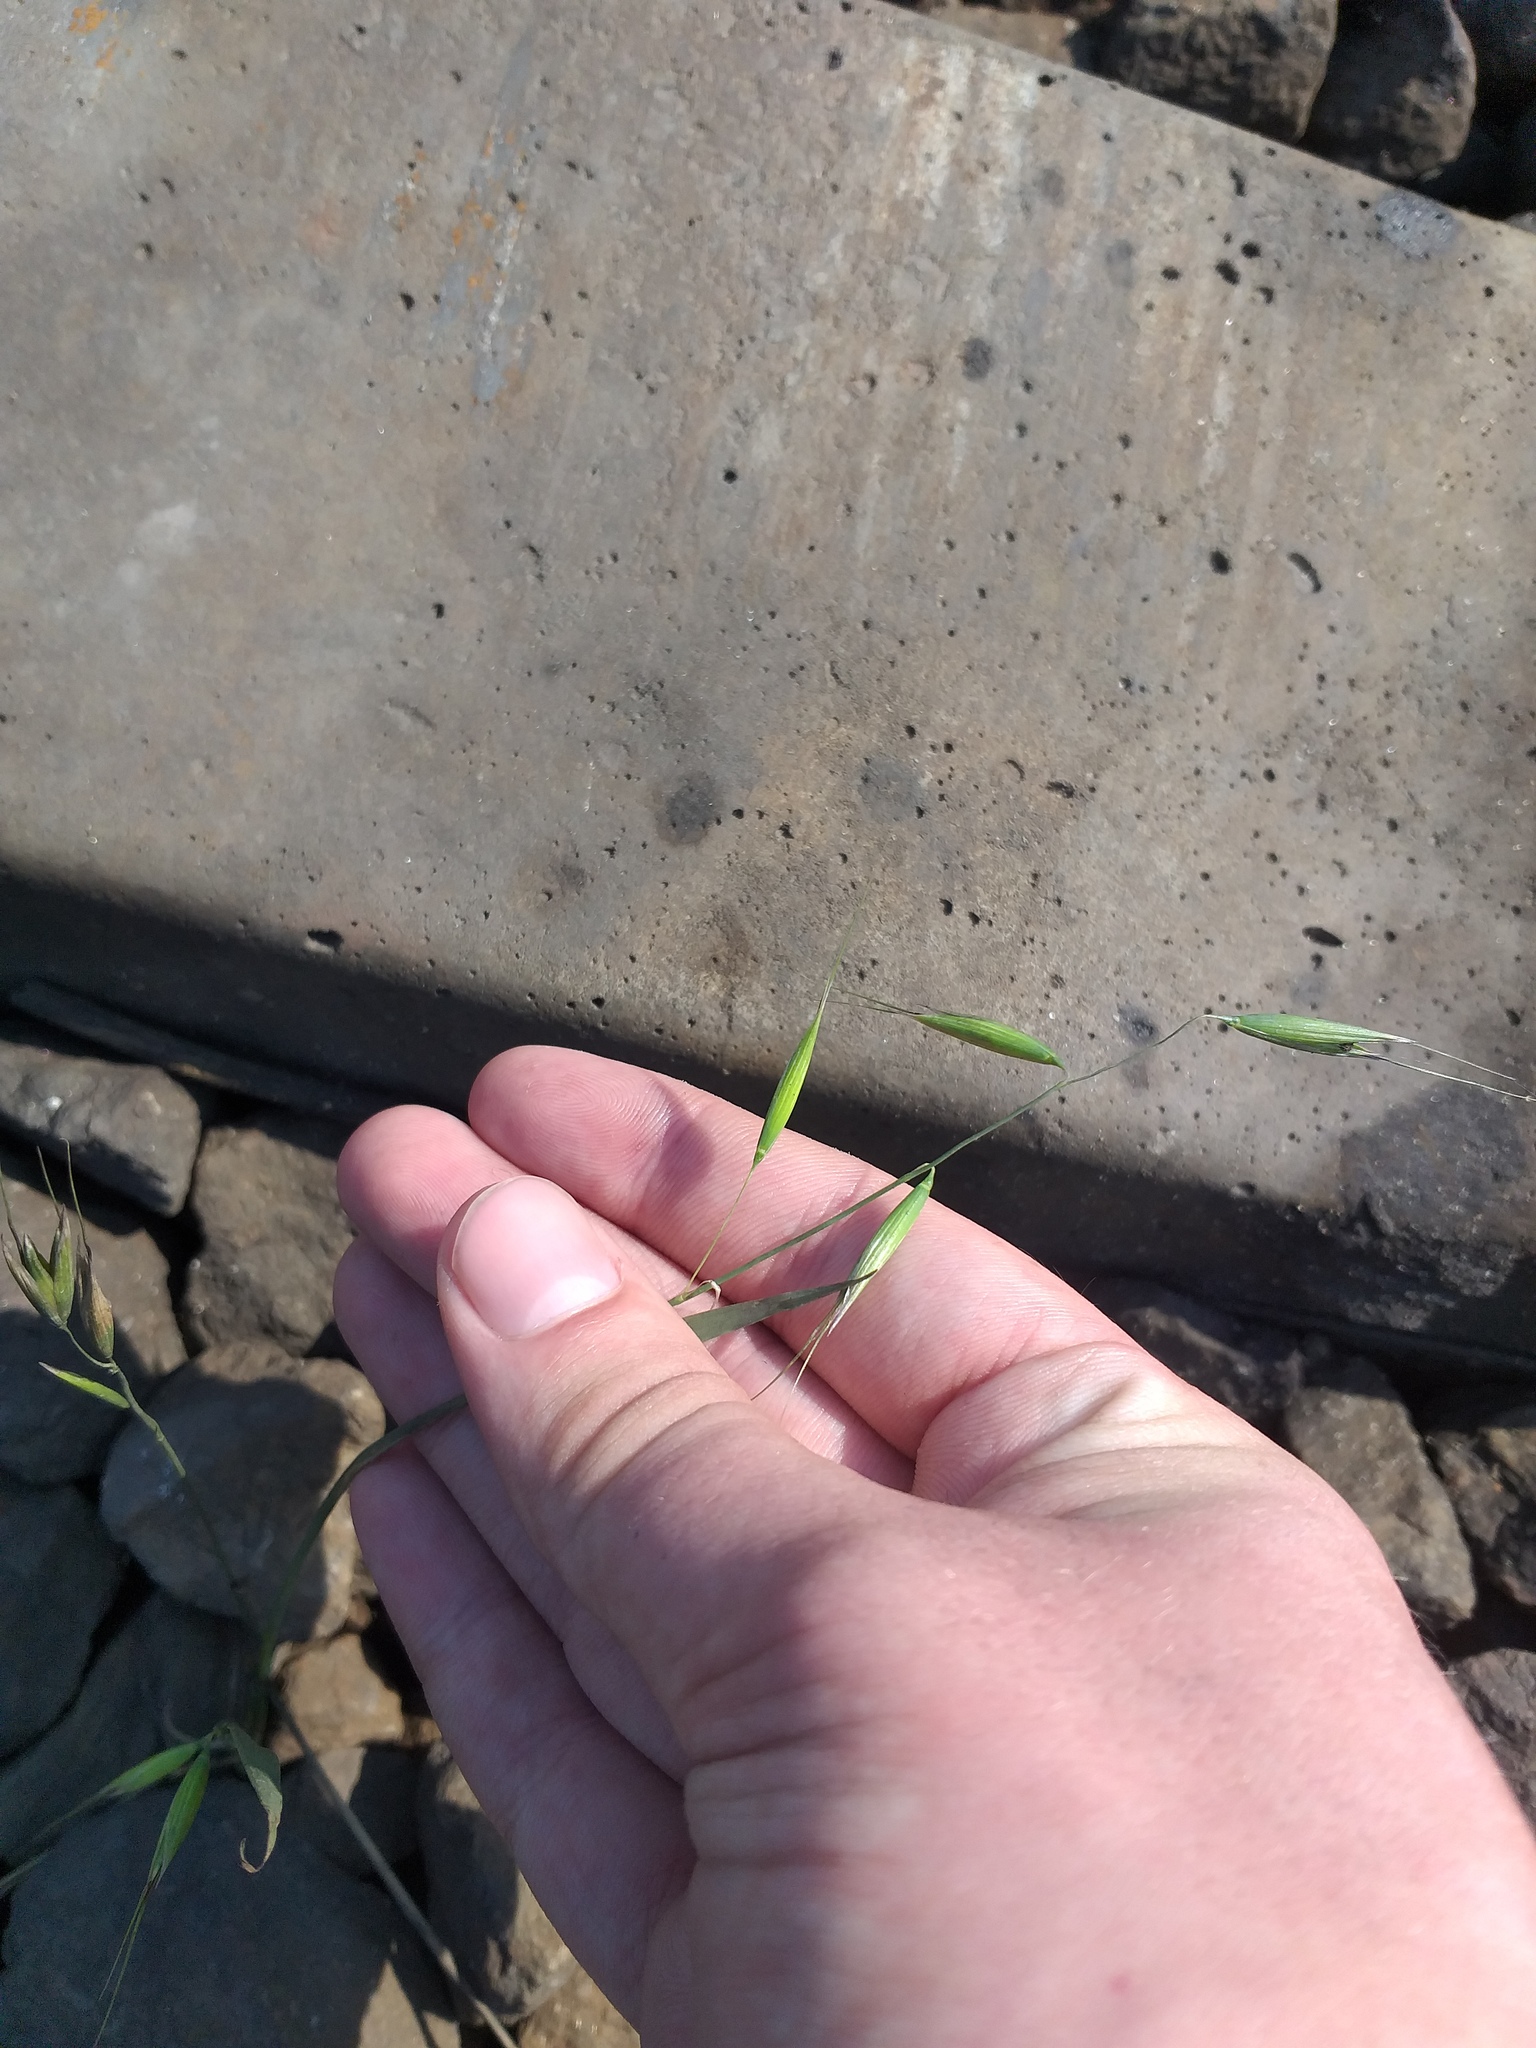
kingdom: Plantae
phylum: Tracheophyta
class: Liliopsida
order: Poales
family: Poaceae
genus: Avena
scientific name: Avena fatua
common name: Wild oat
